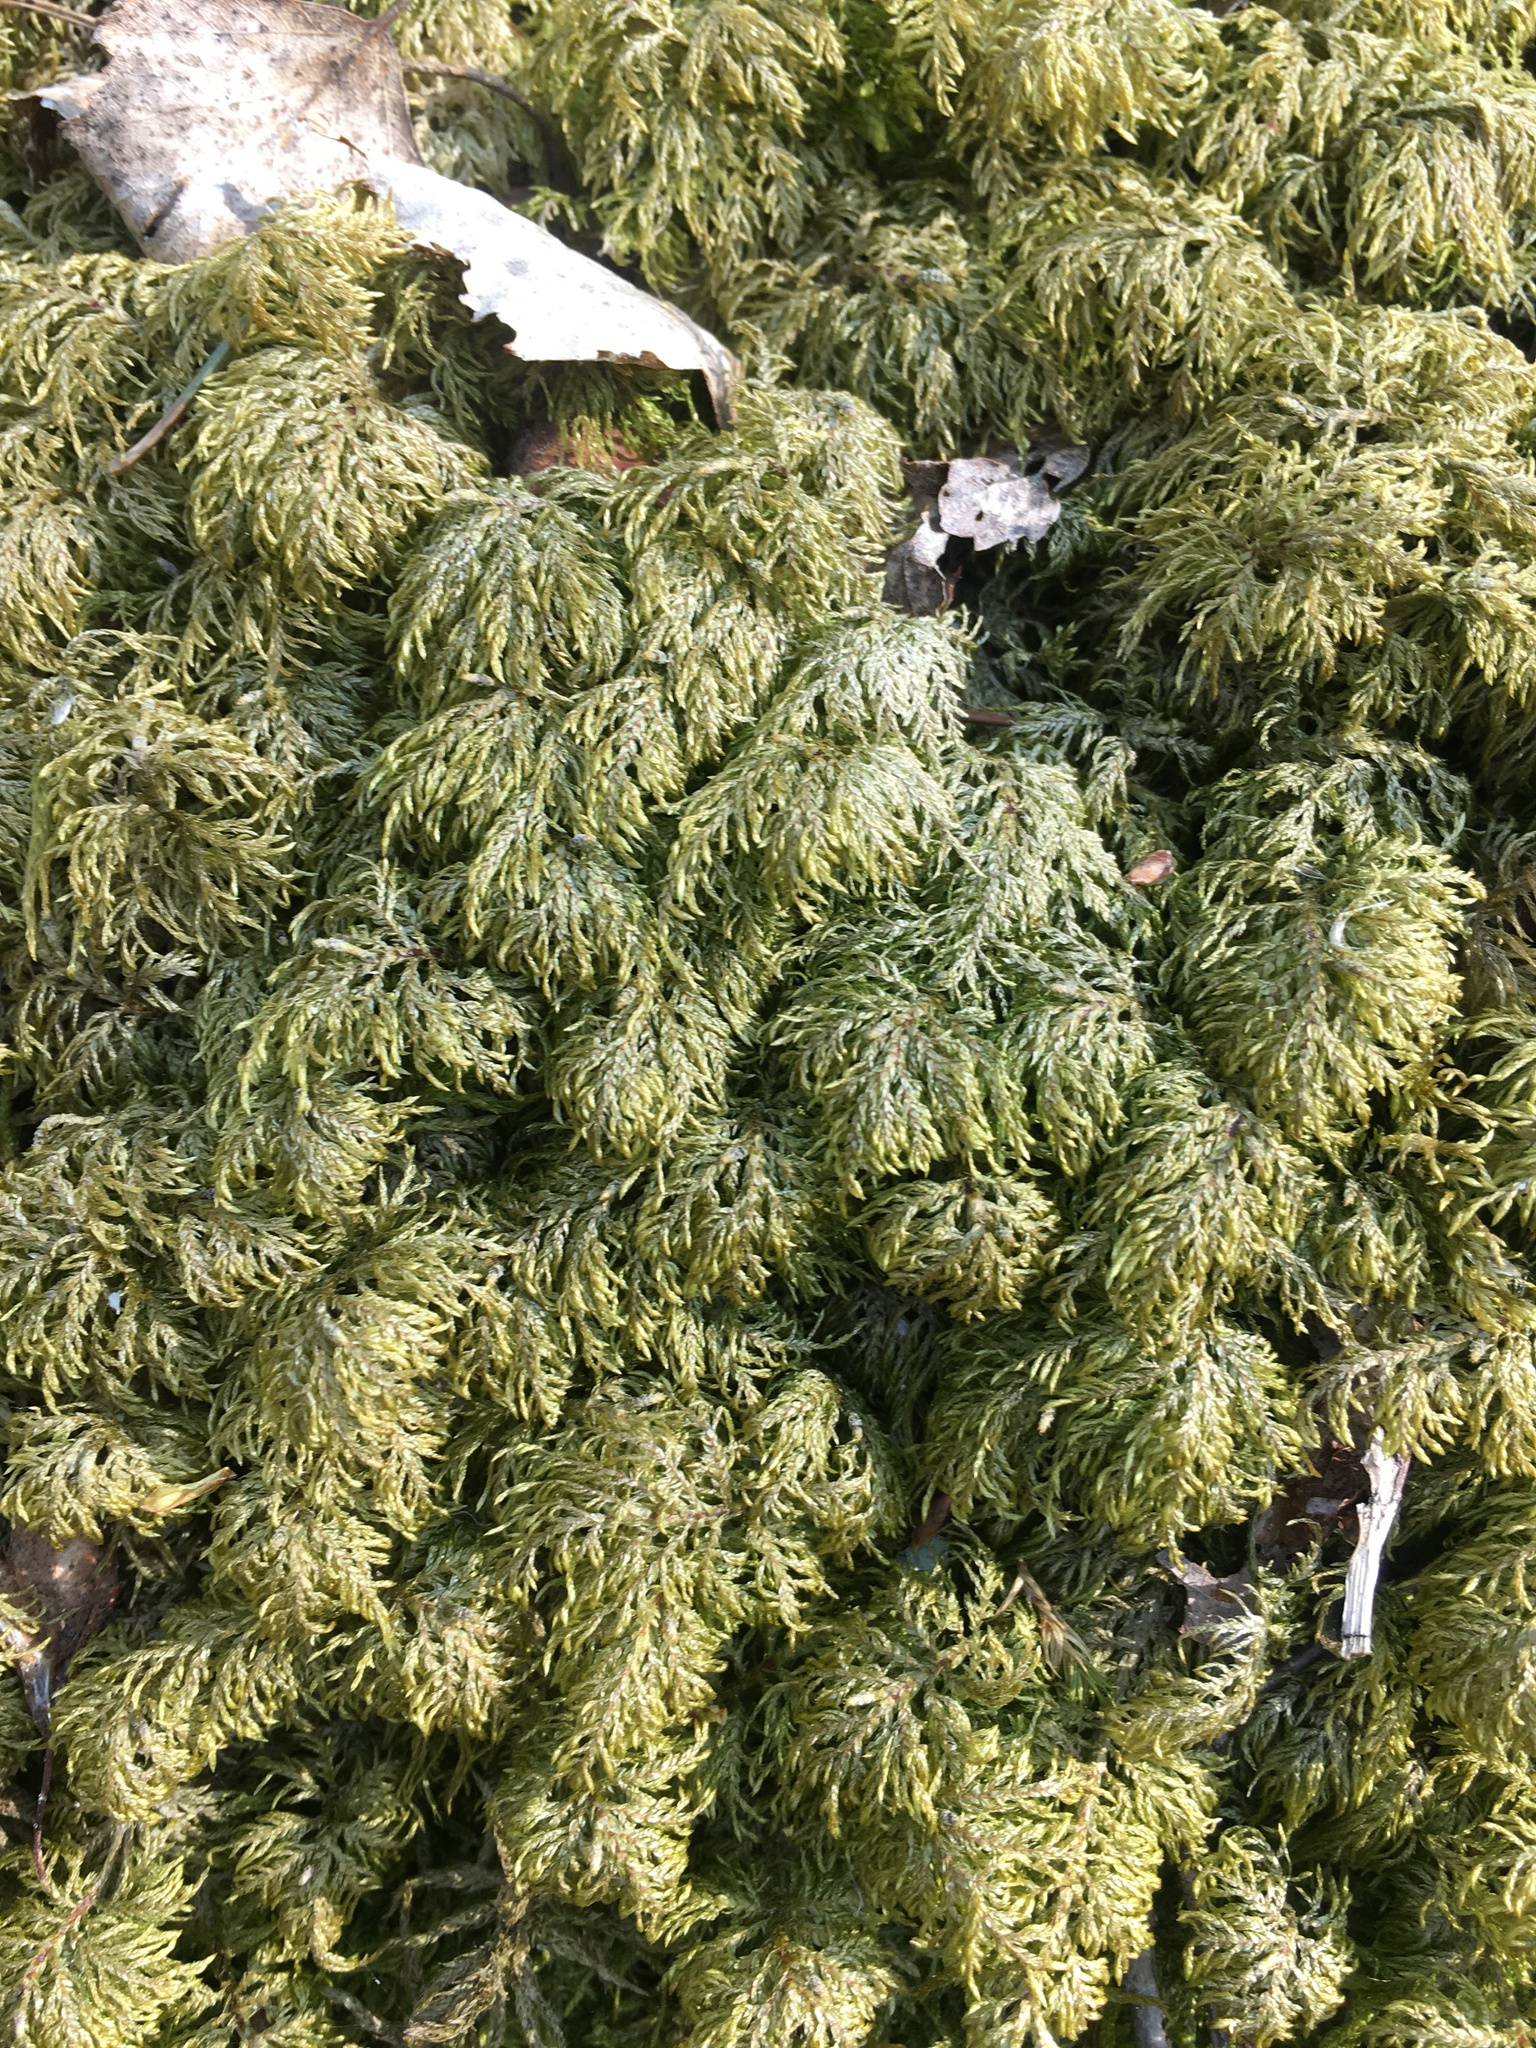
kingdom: Plantae
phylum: Bryophyta
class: Bryopsida
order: Hypnales
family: Hylocomiaceae
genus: Hylocomium
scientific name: Hylocomium splendens
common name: Stairstep moss
